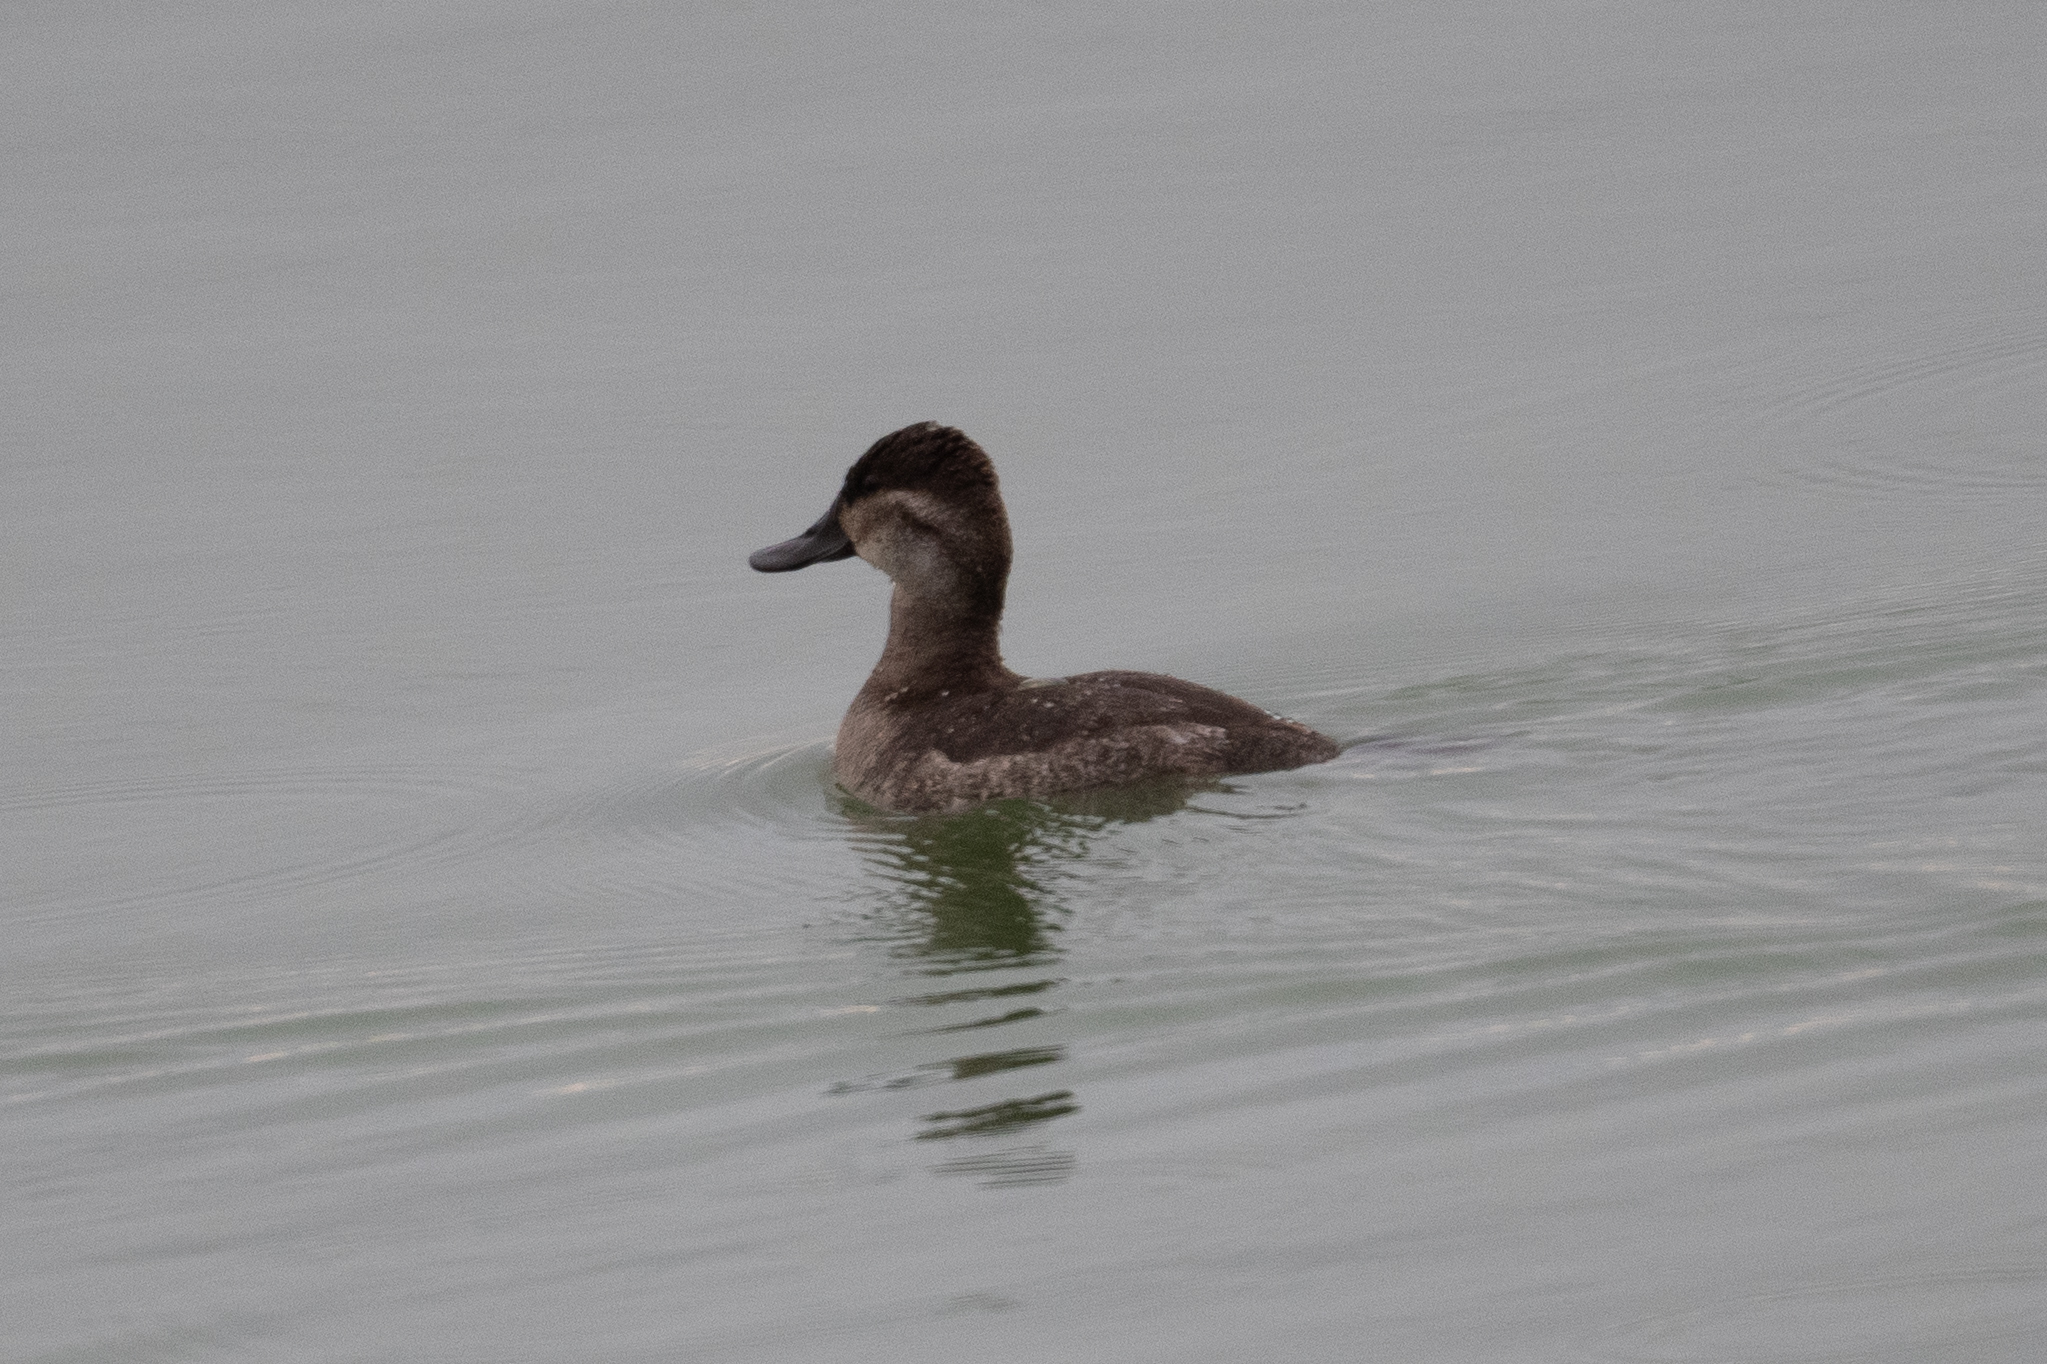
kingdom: Animalia
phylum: Chordata
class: Aves
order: Anseriformes
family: Anatidae
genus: Oxyura
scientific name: Oxyura jamaicensis
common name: Ruddy duck
